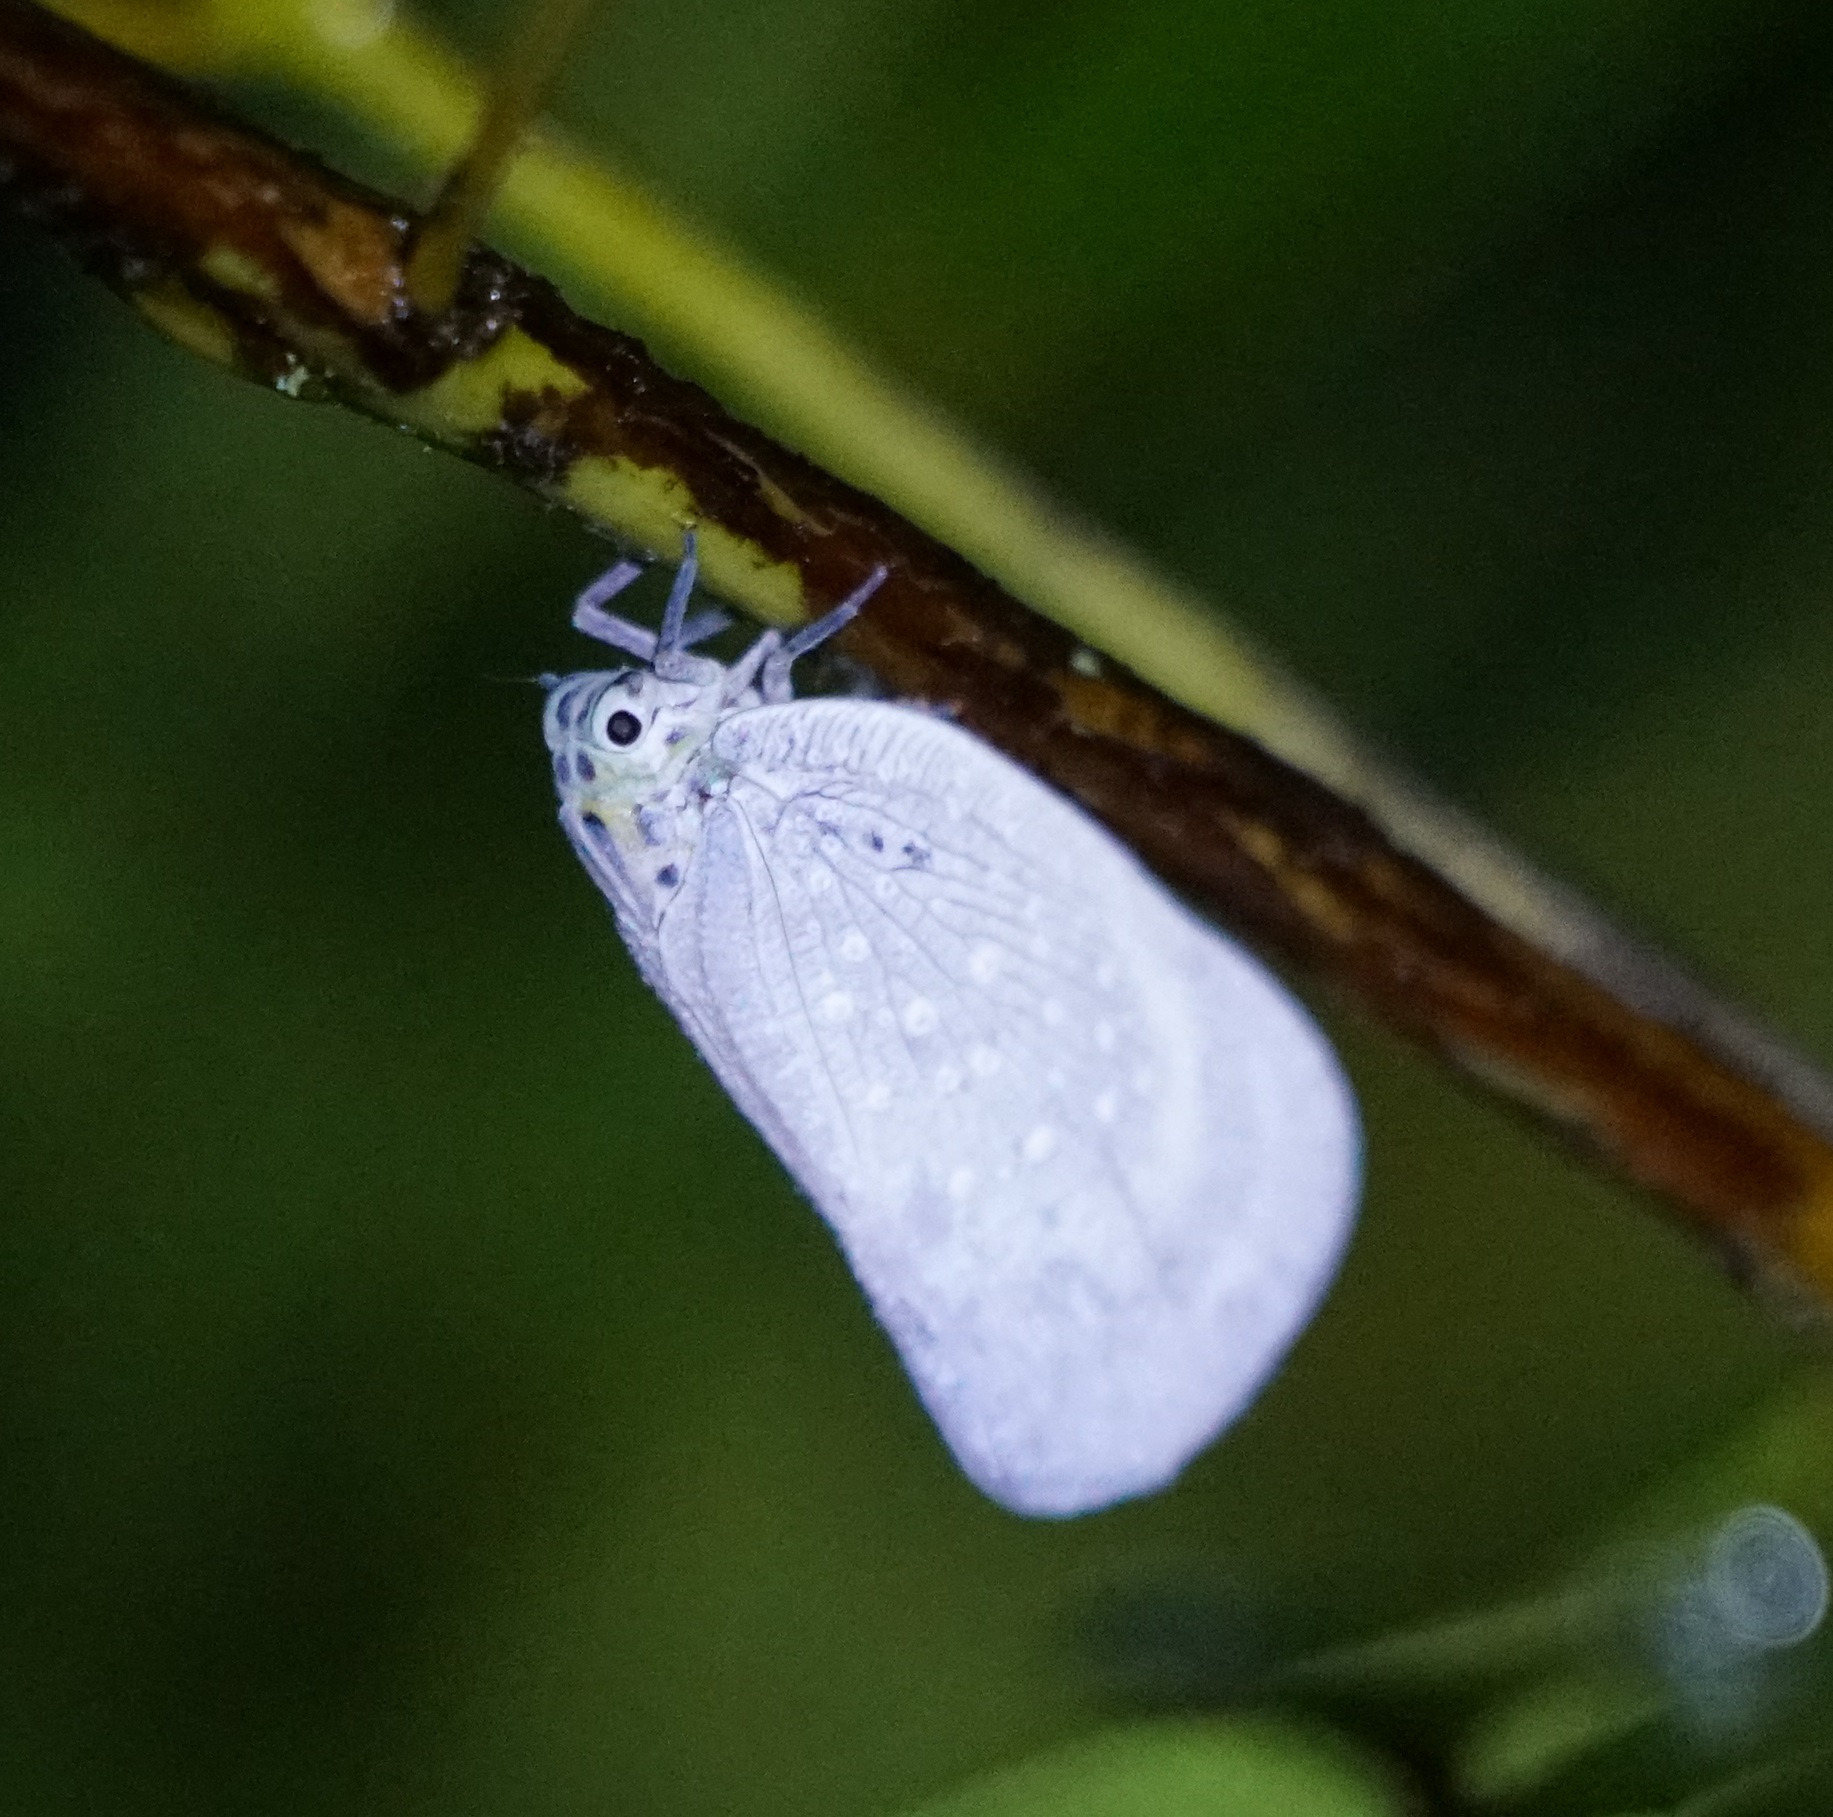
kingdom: Animalia
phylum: Arthropoda
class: Insecta
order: Hemiptera
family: Flatidae
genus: Bythopsyrna
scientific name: Bythopsyrna tineoides
